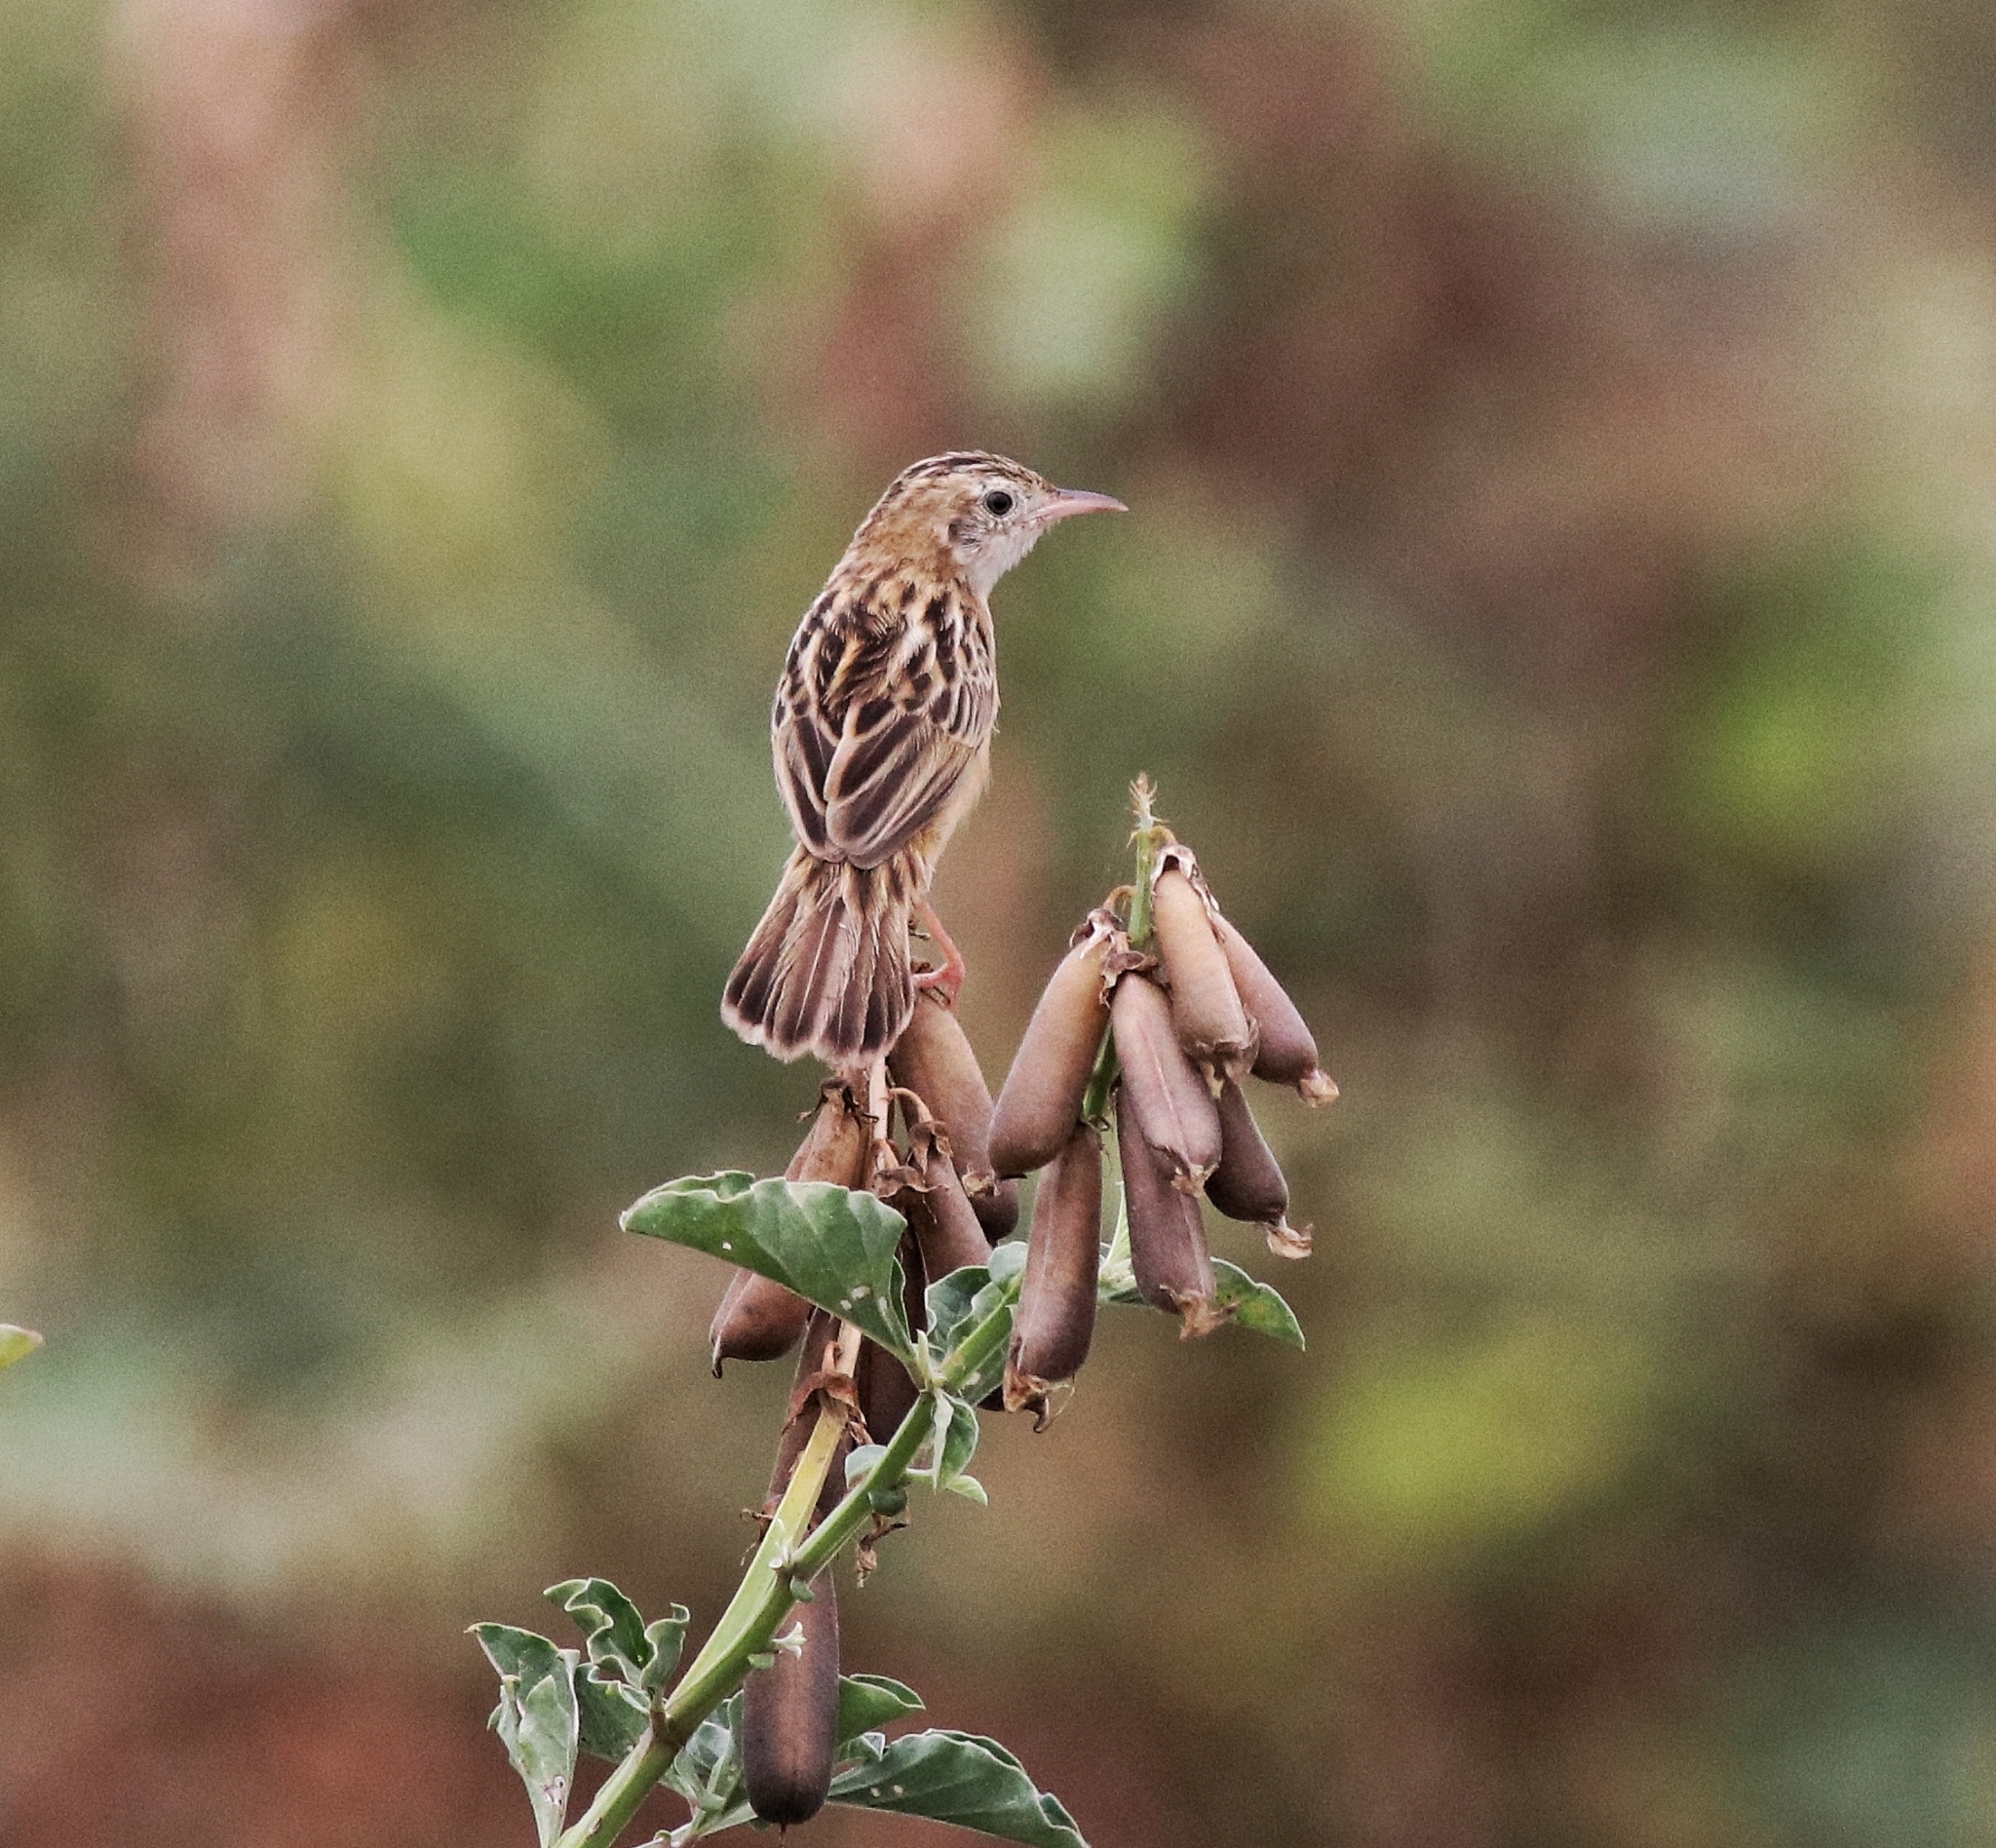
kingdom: Animalia
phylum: Chordata
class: Aves
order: Passeriformes
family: Cisticolidae
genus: Cisticola
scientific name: Cisticola juncidis
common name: Zitting cisticola
